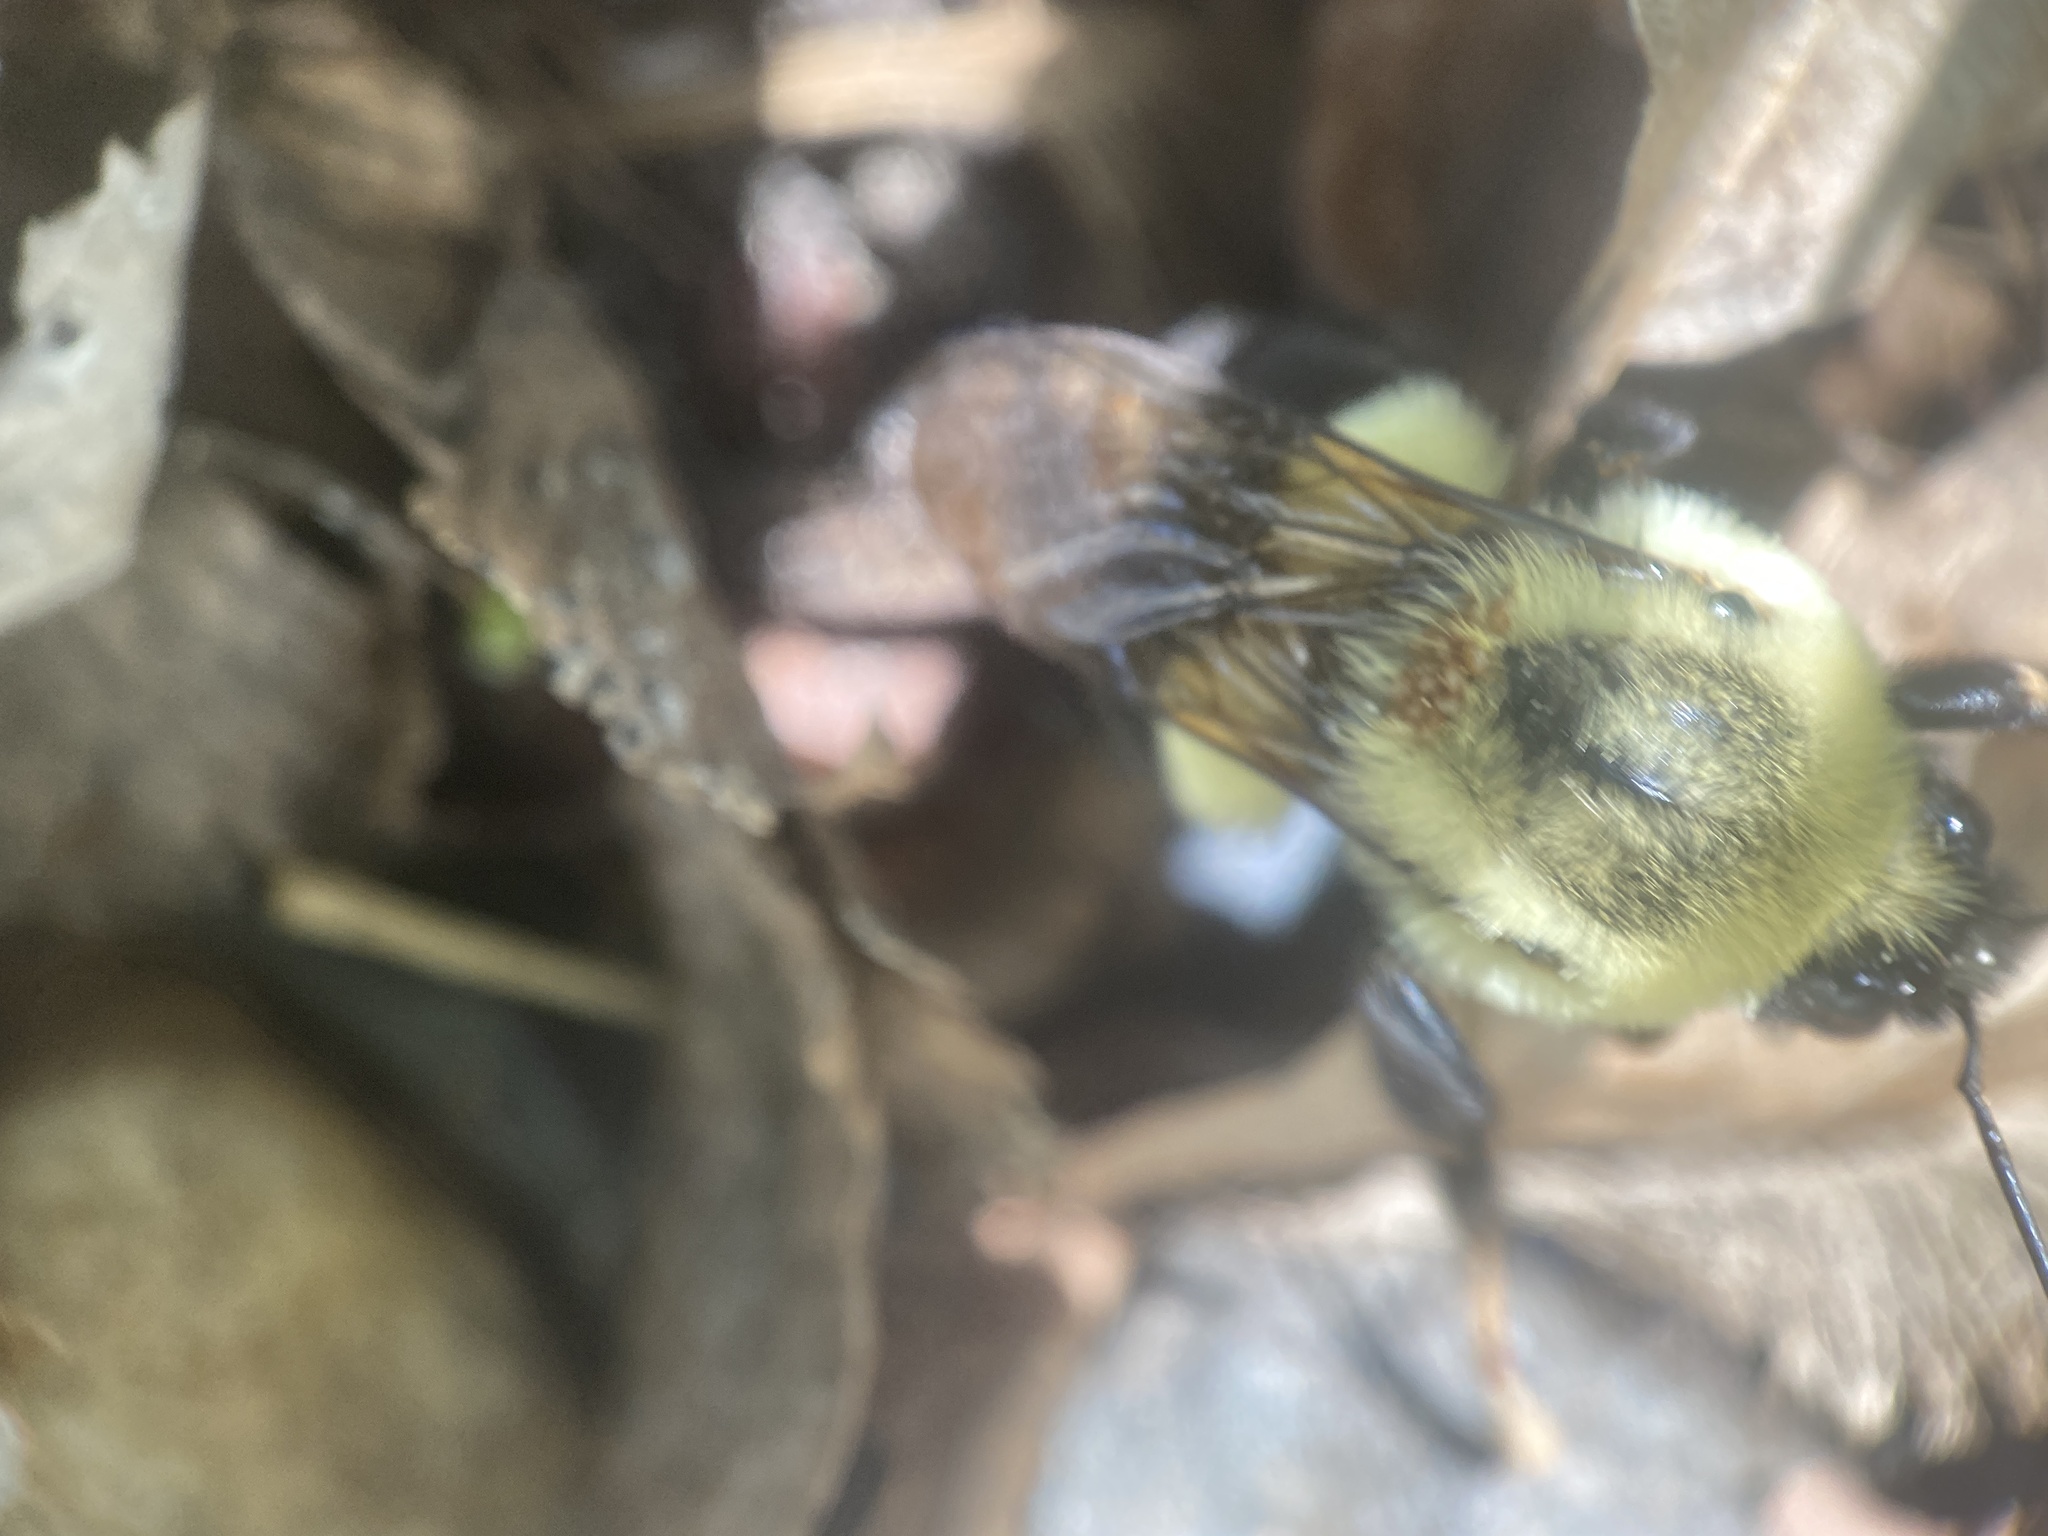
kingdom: Animalia
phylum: Arthropoda
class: Insecta
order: Hymenoptera
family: Apidae
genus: Bombus
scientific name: Bombus impatiens
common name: Common eastern bumble bee
